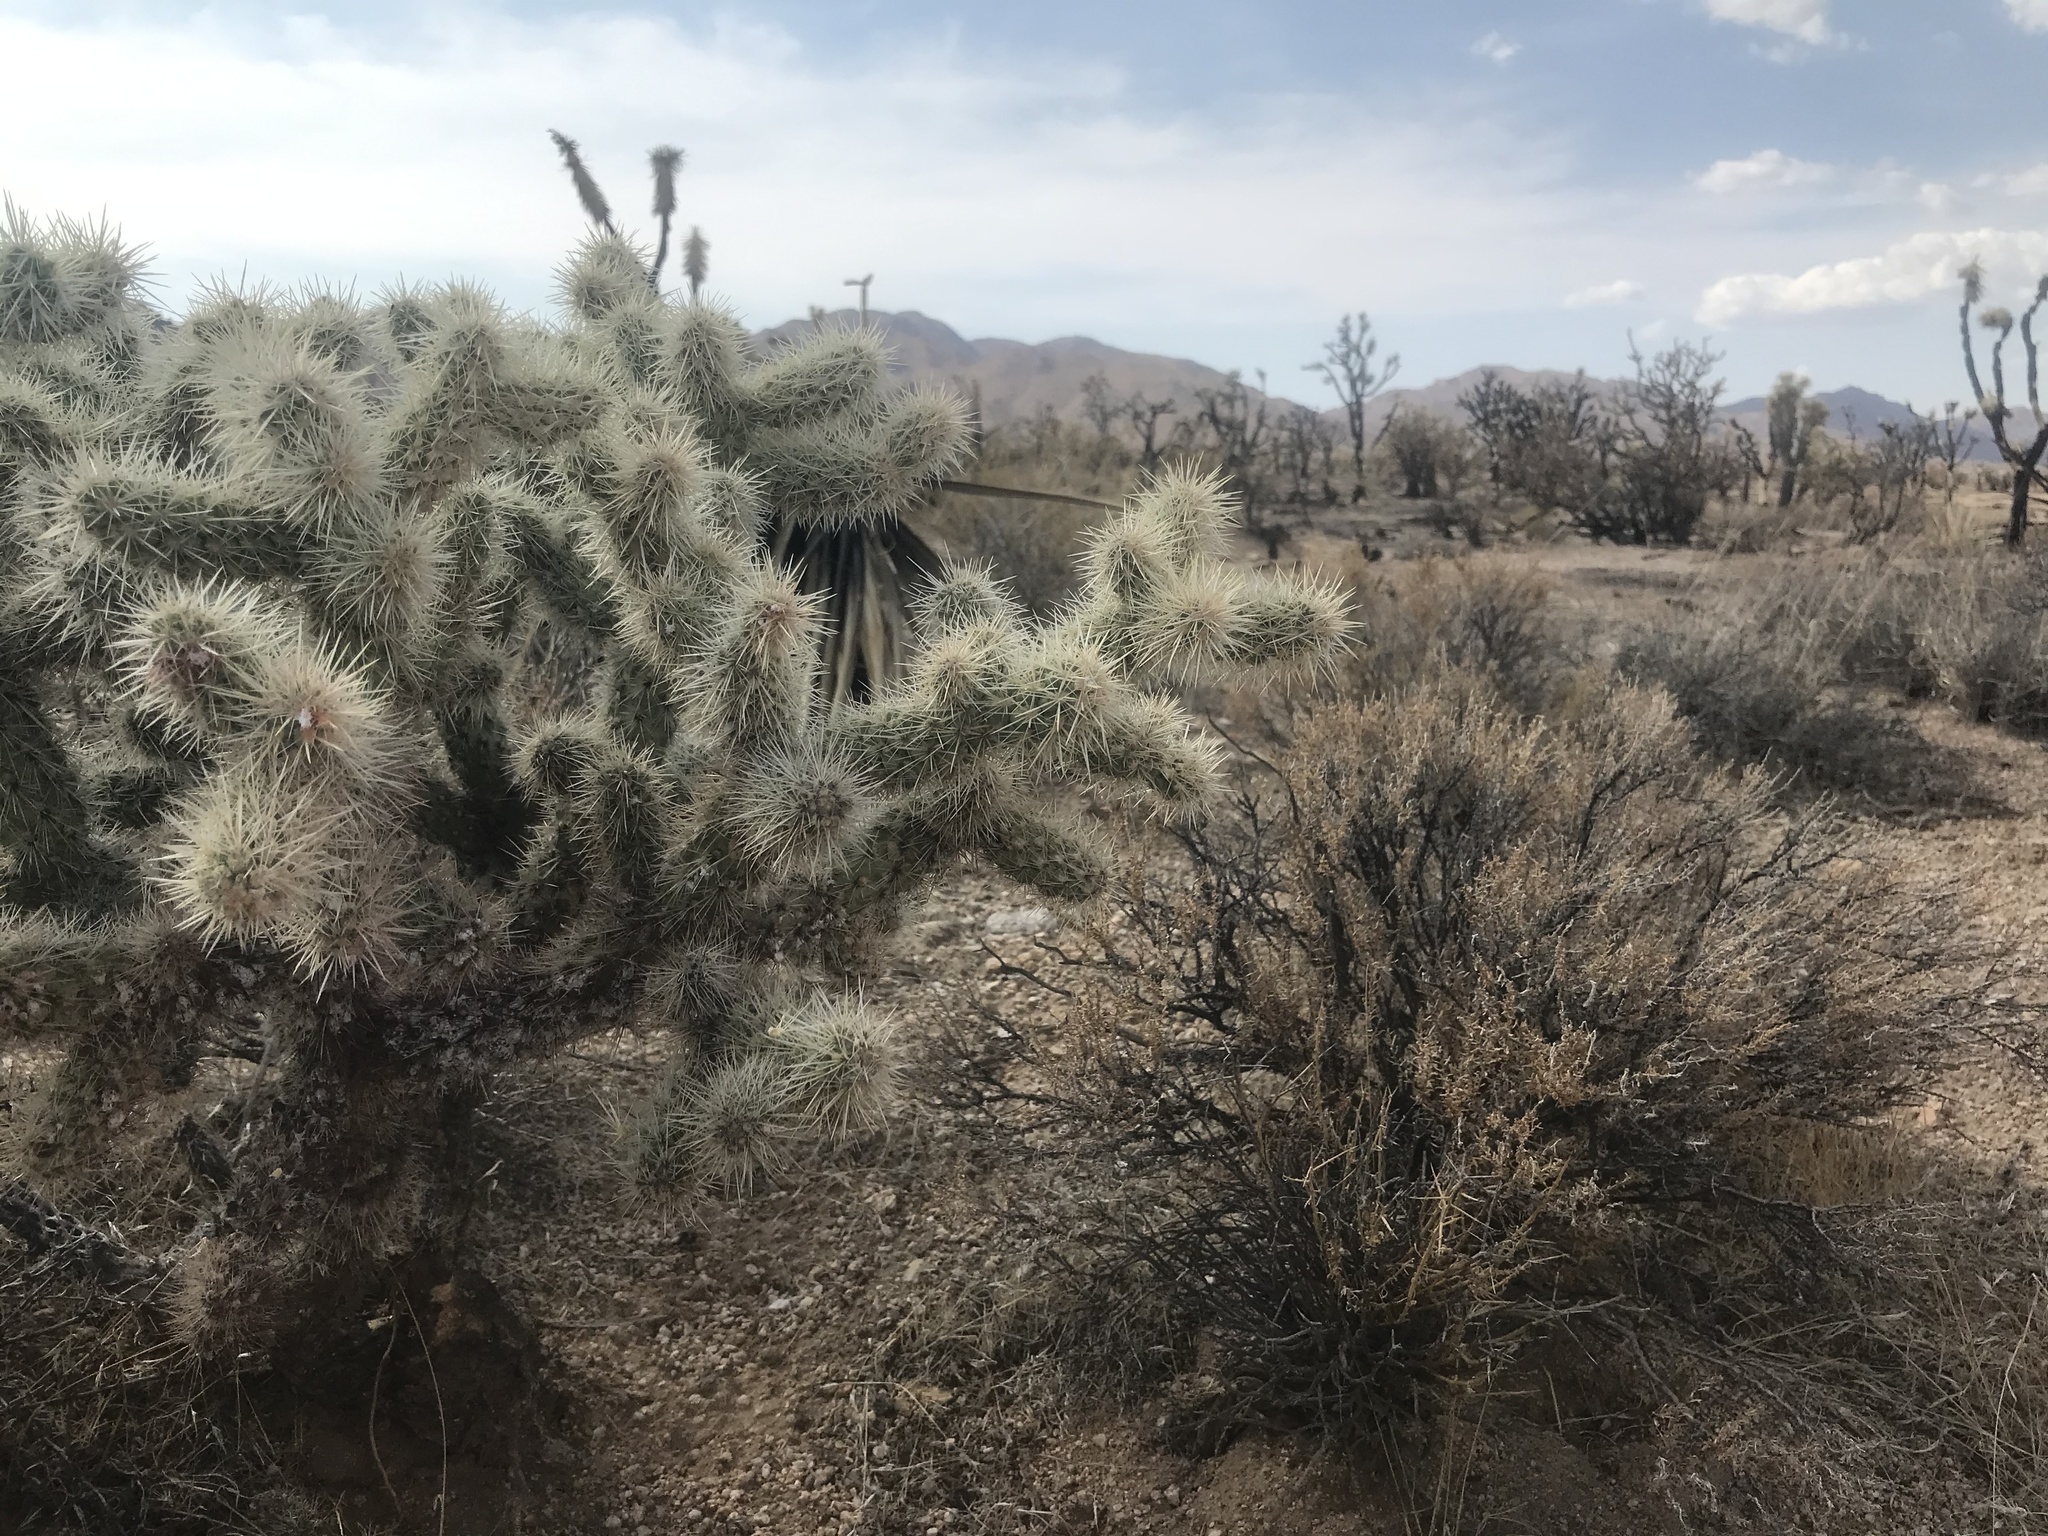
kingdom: Plantae
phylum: Tracheophyta
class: Magnoliopsida
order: Caryophyllales
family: Cactaceae
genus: Cylindropuntia
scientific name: Cylindropuntia echinocarpa
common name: Ground cholla
